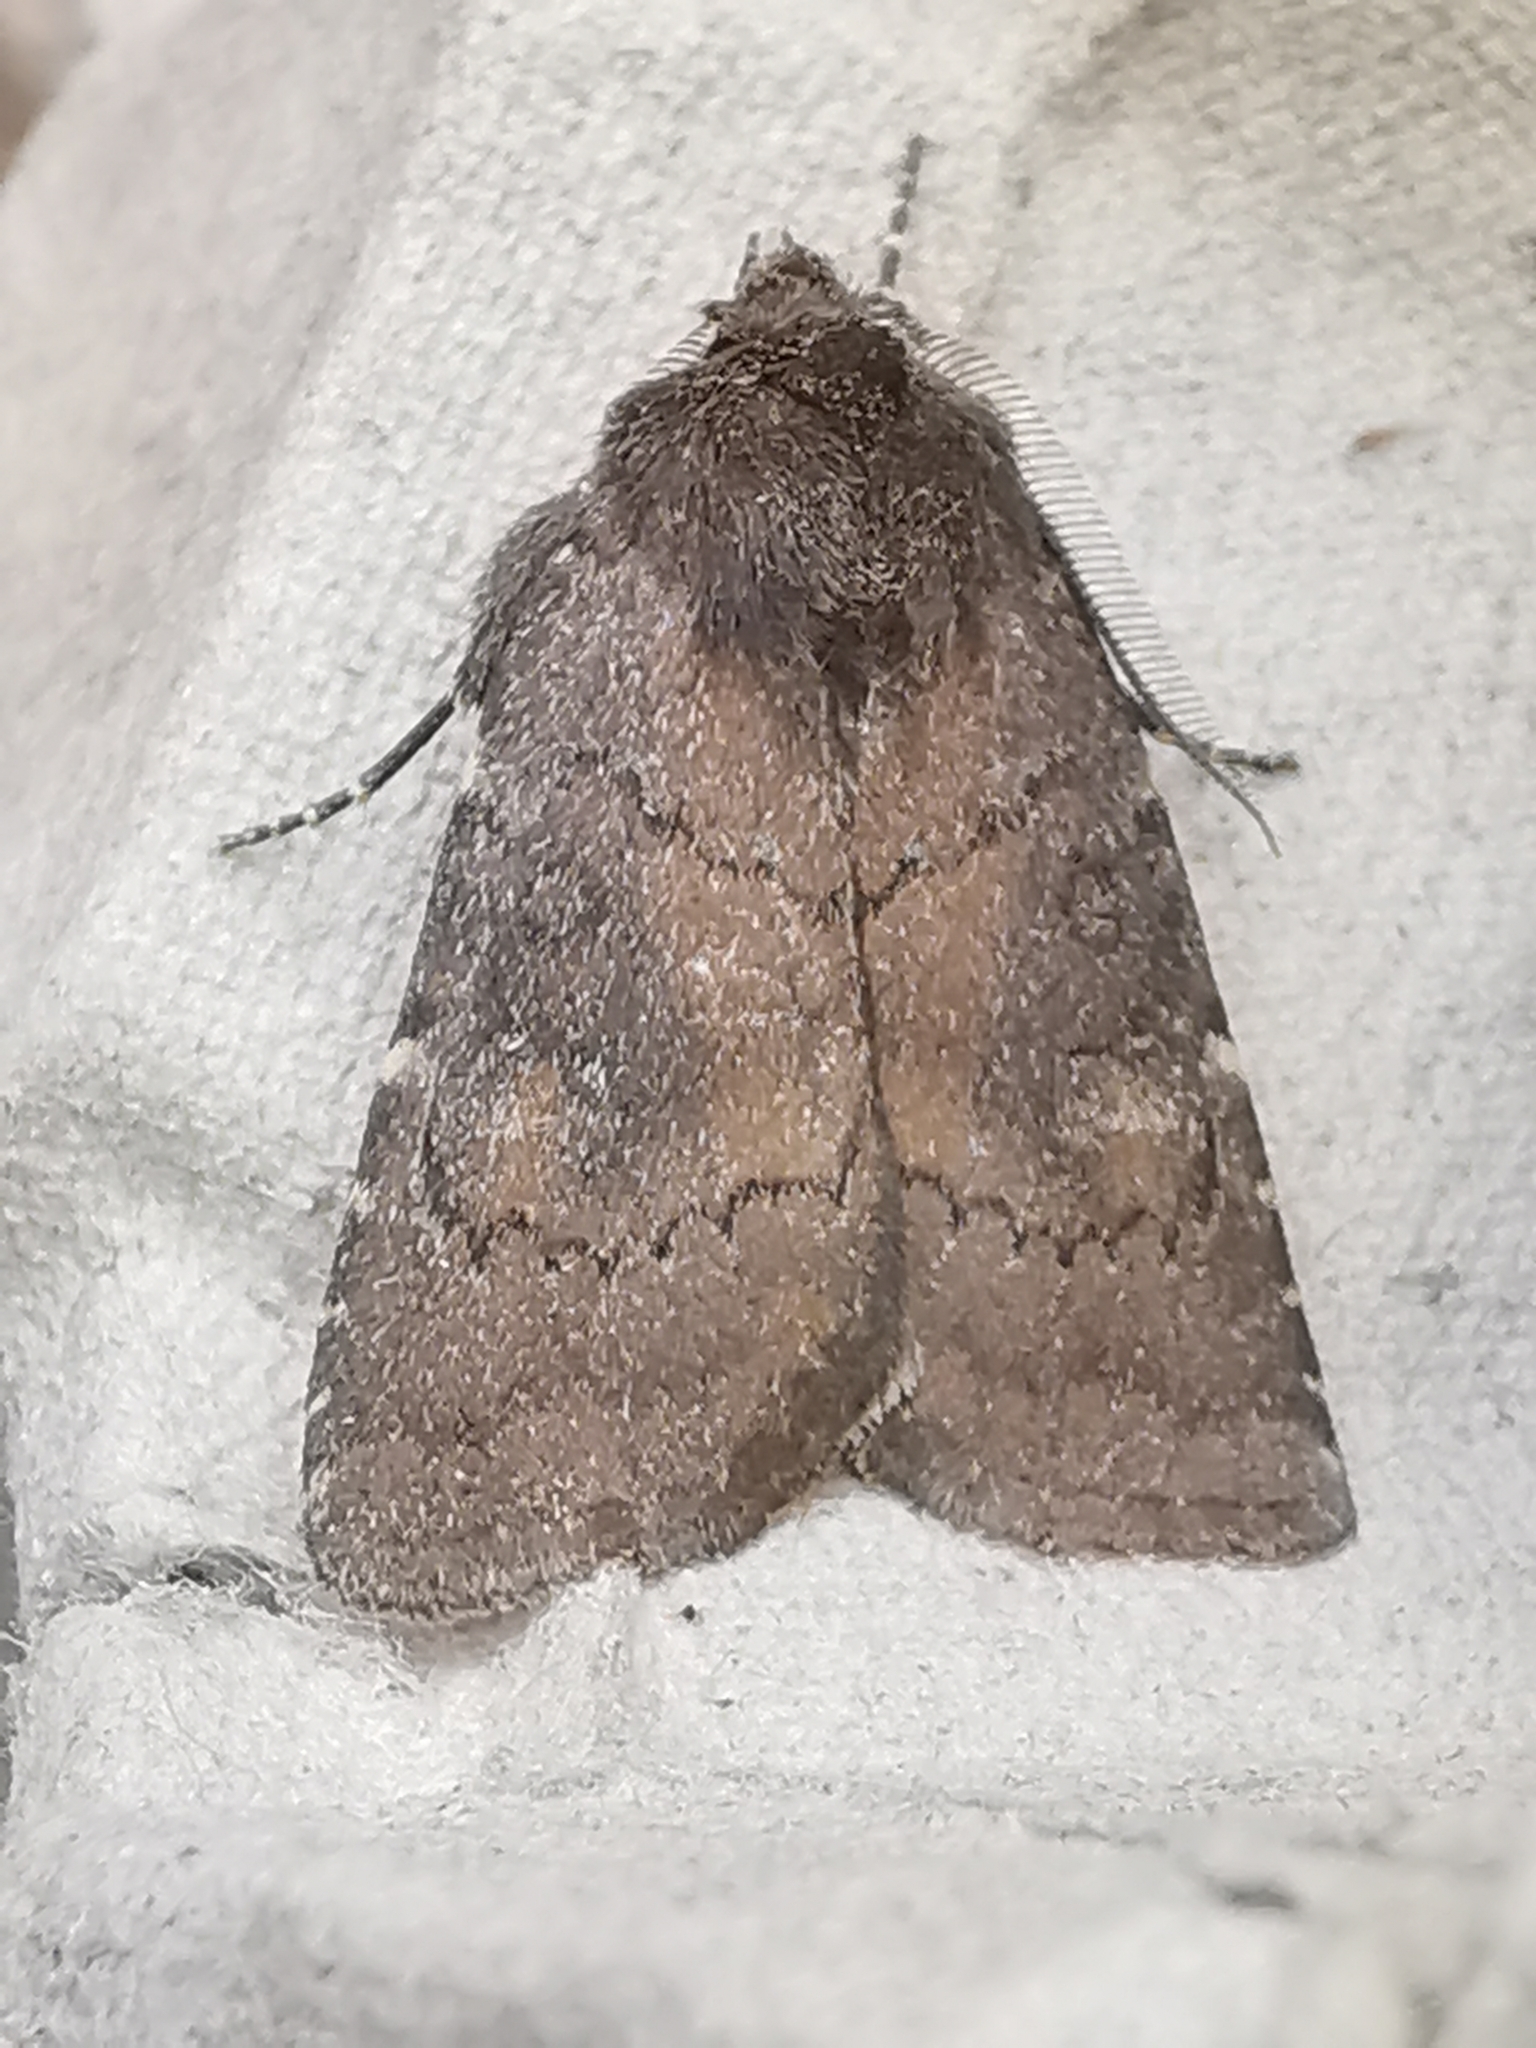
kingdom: Animalia
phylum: Arthropoda
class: Insecta
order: Lepidoptera
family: Noctuidae
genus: Charanyca
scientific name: Charanyca ferruginea
